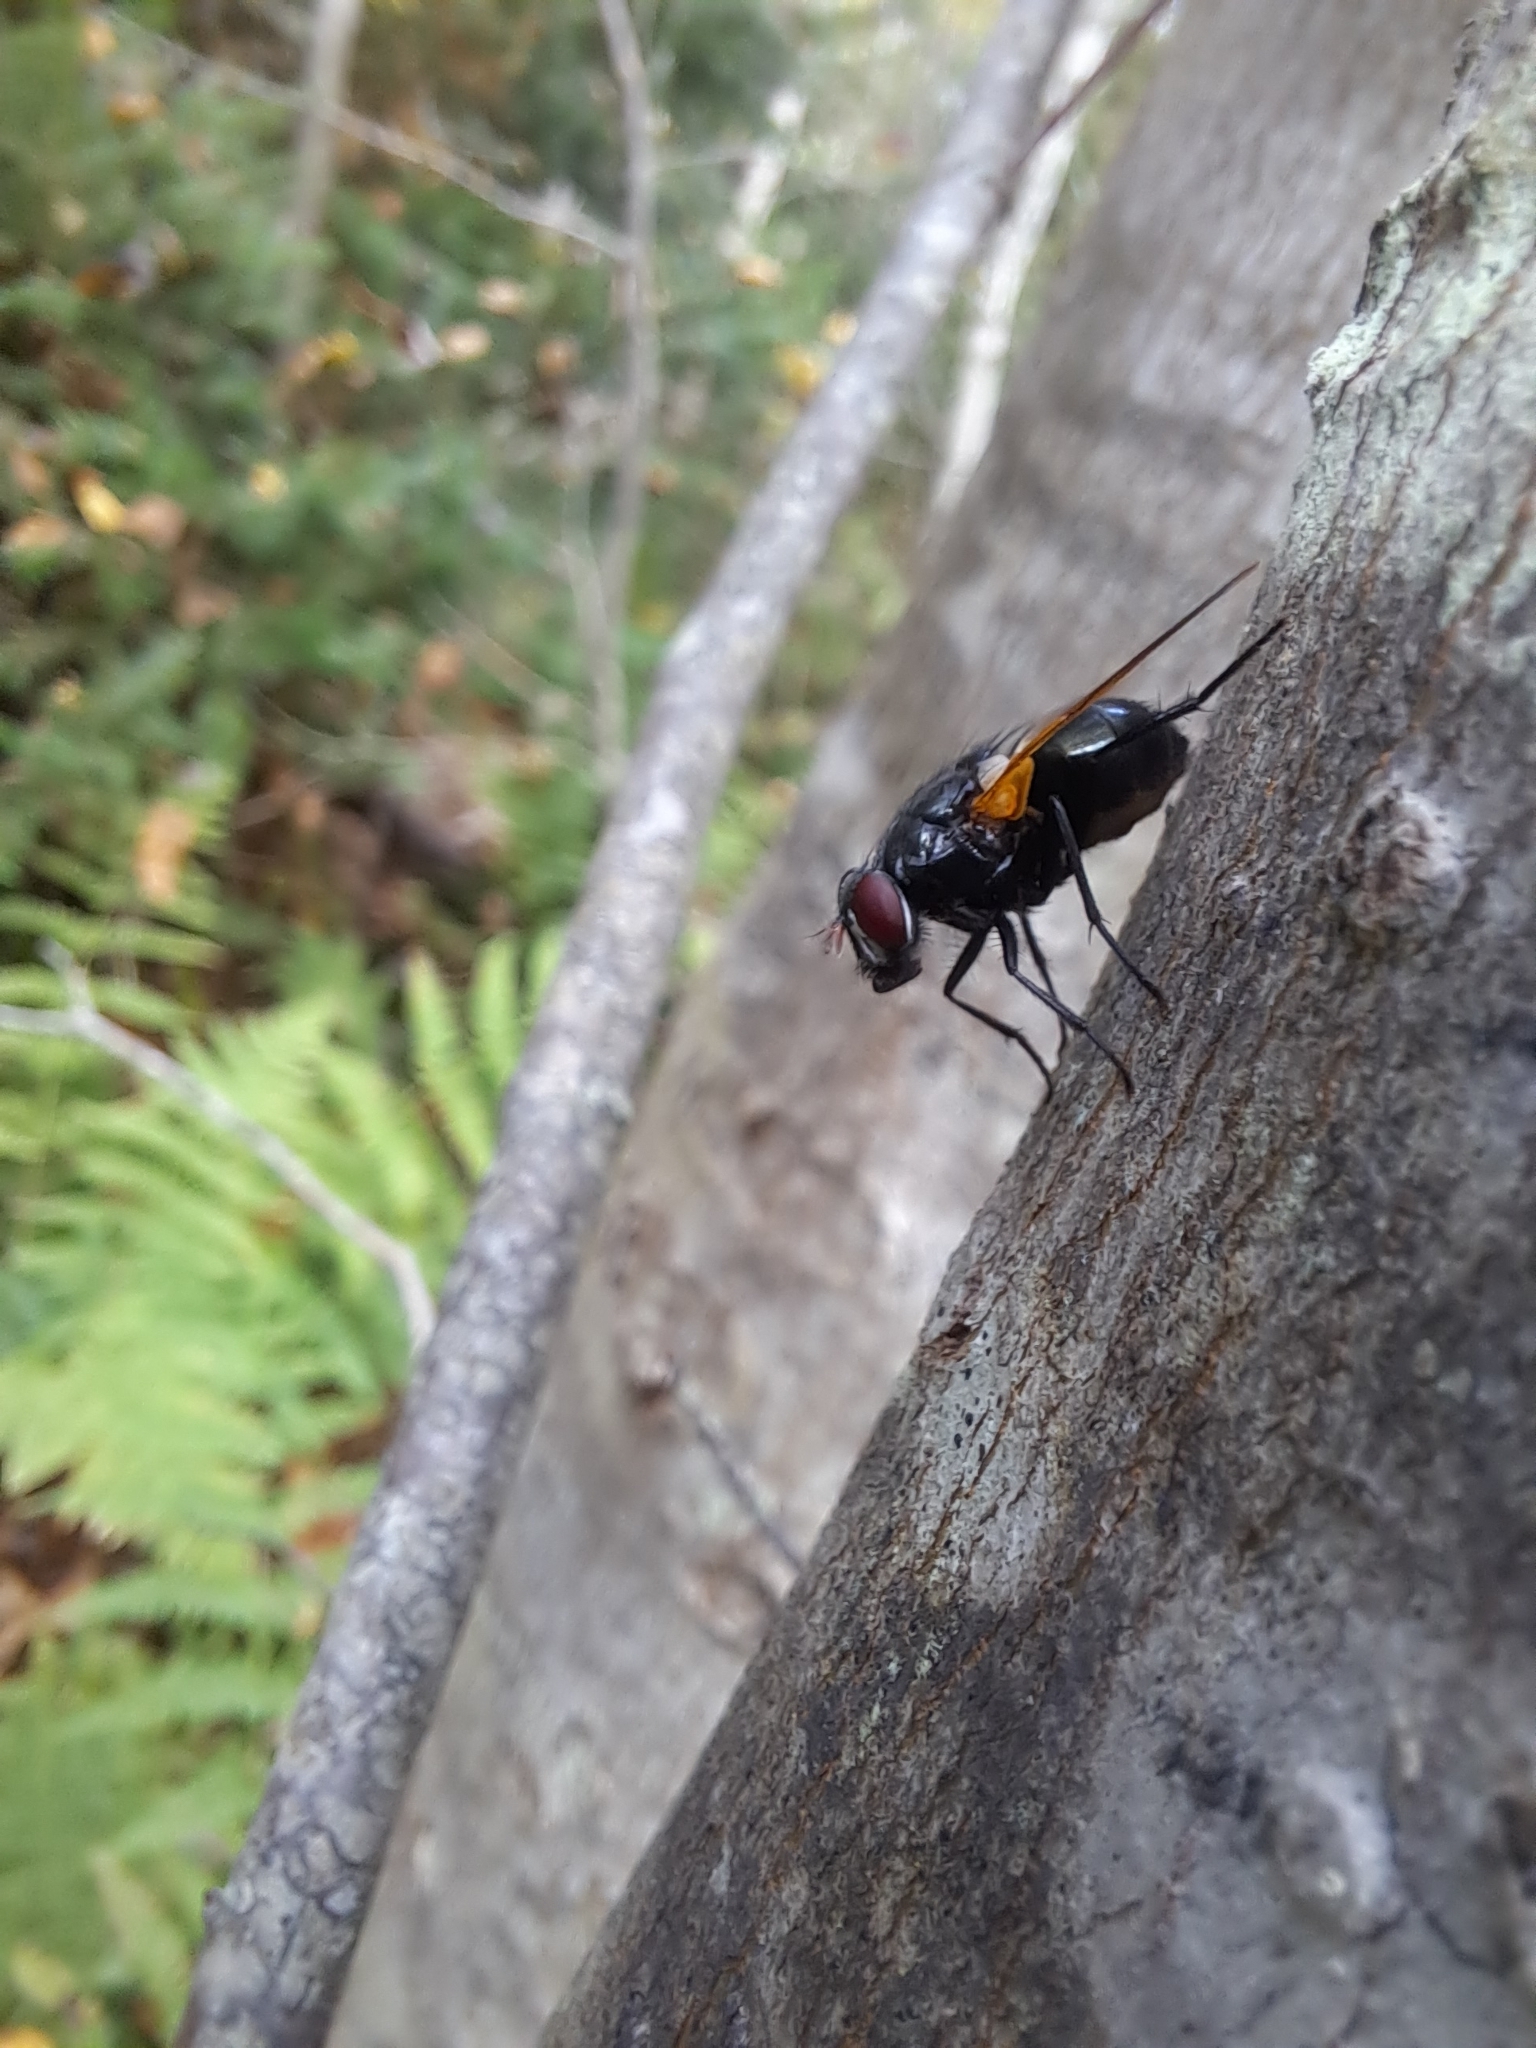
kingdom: Animalia
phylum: Arthropoda
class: Insecta
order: Diptera
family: Muscidae
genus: Mesembrina
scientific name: Mesembrina latreillii
